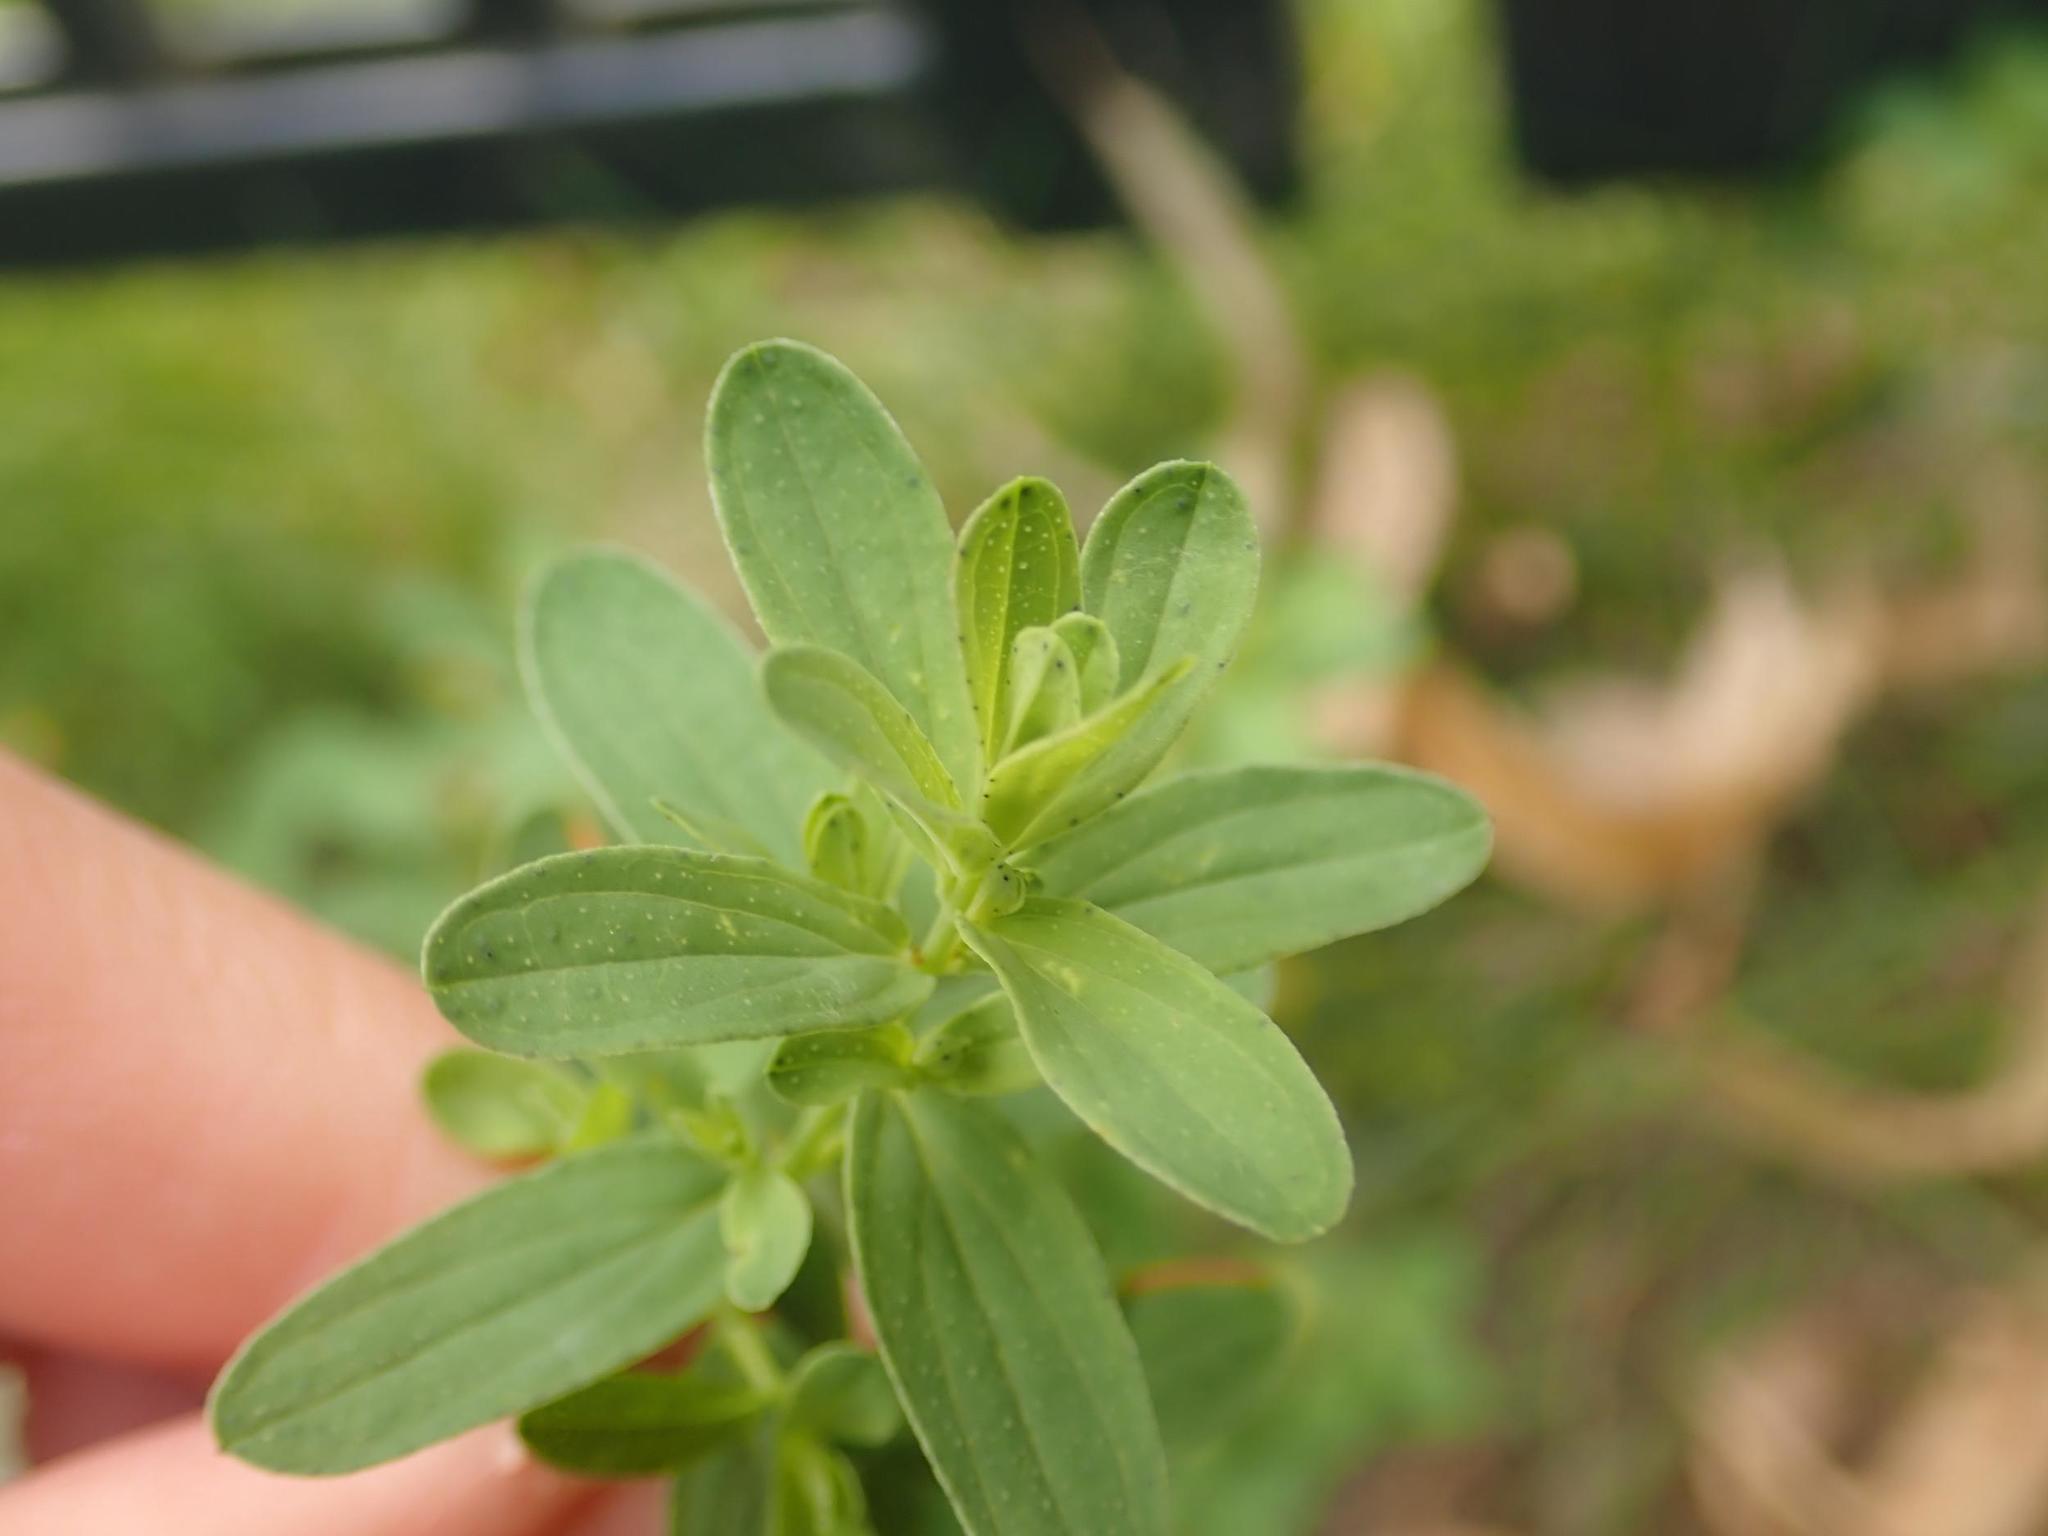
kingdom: Plantae
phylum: Tracheophyta
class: Magnoliopsida
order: Malpighiales
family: Hypericaceae
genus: Hypericum
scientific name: Hypericum perforatum
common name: Common st. johnswort
